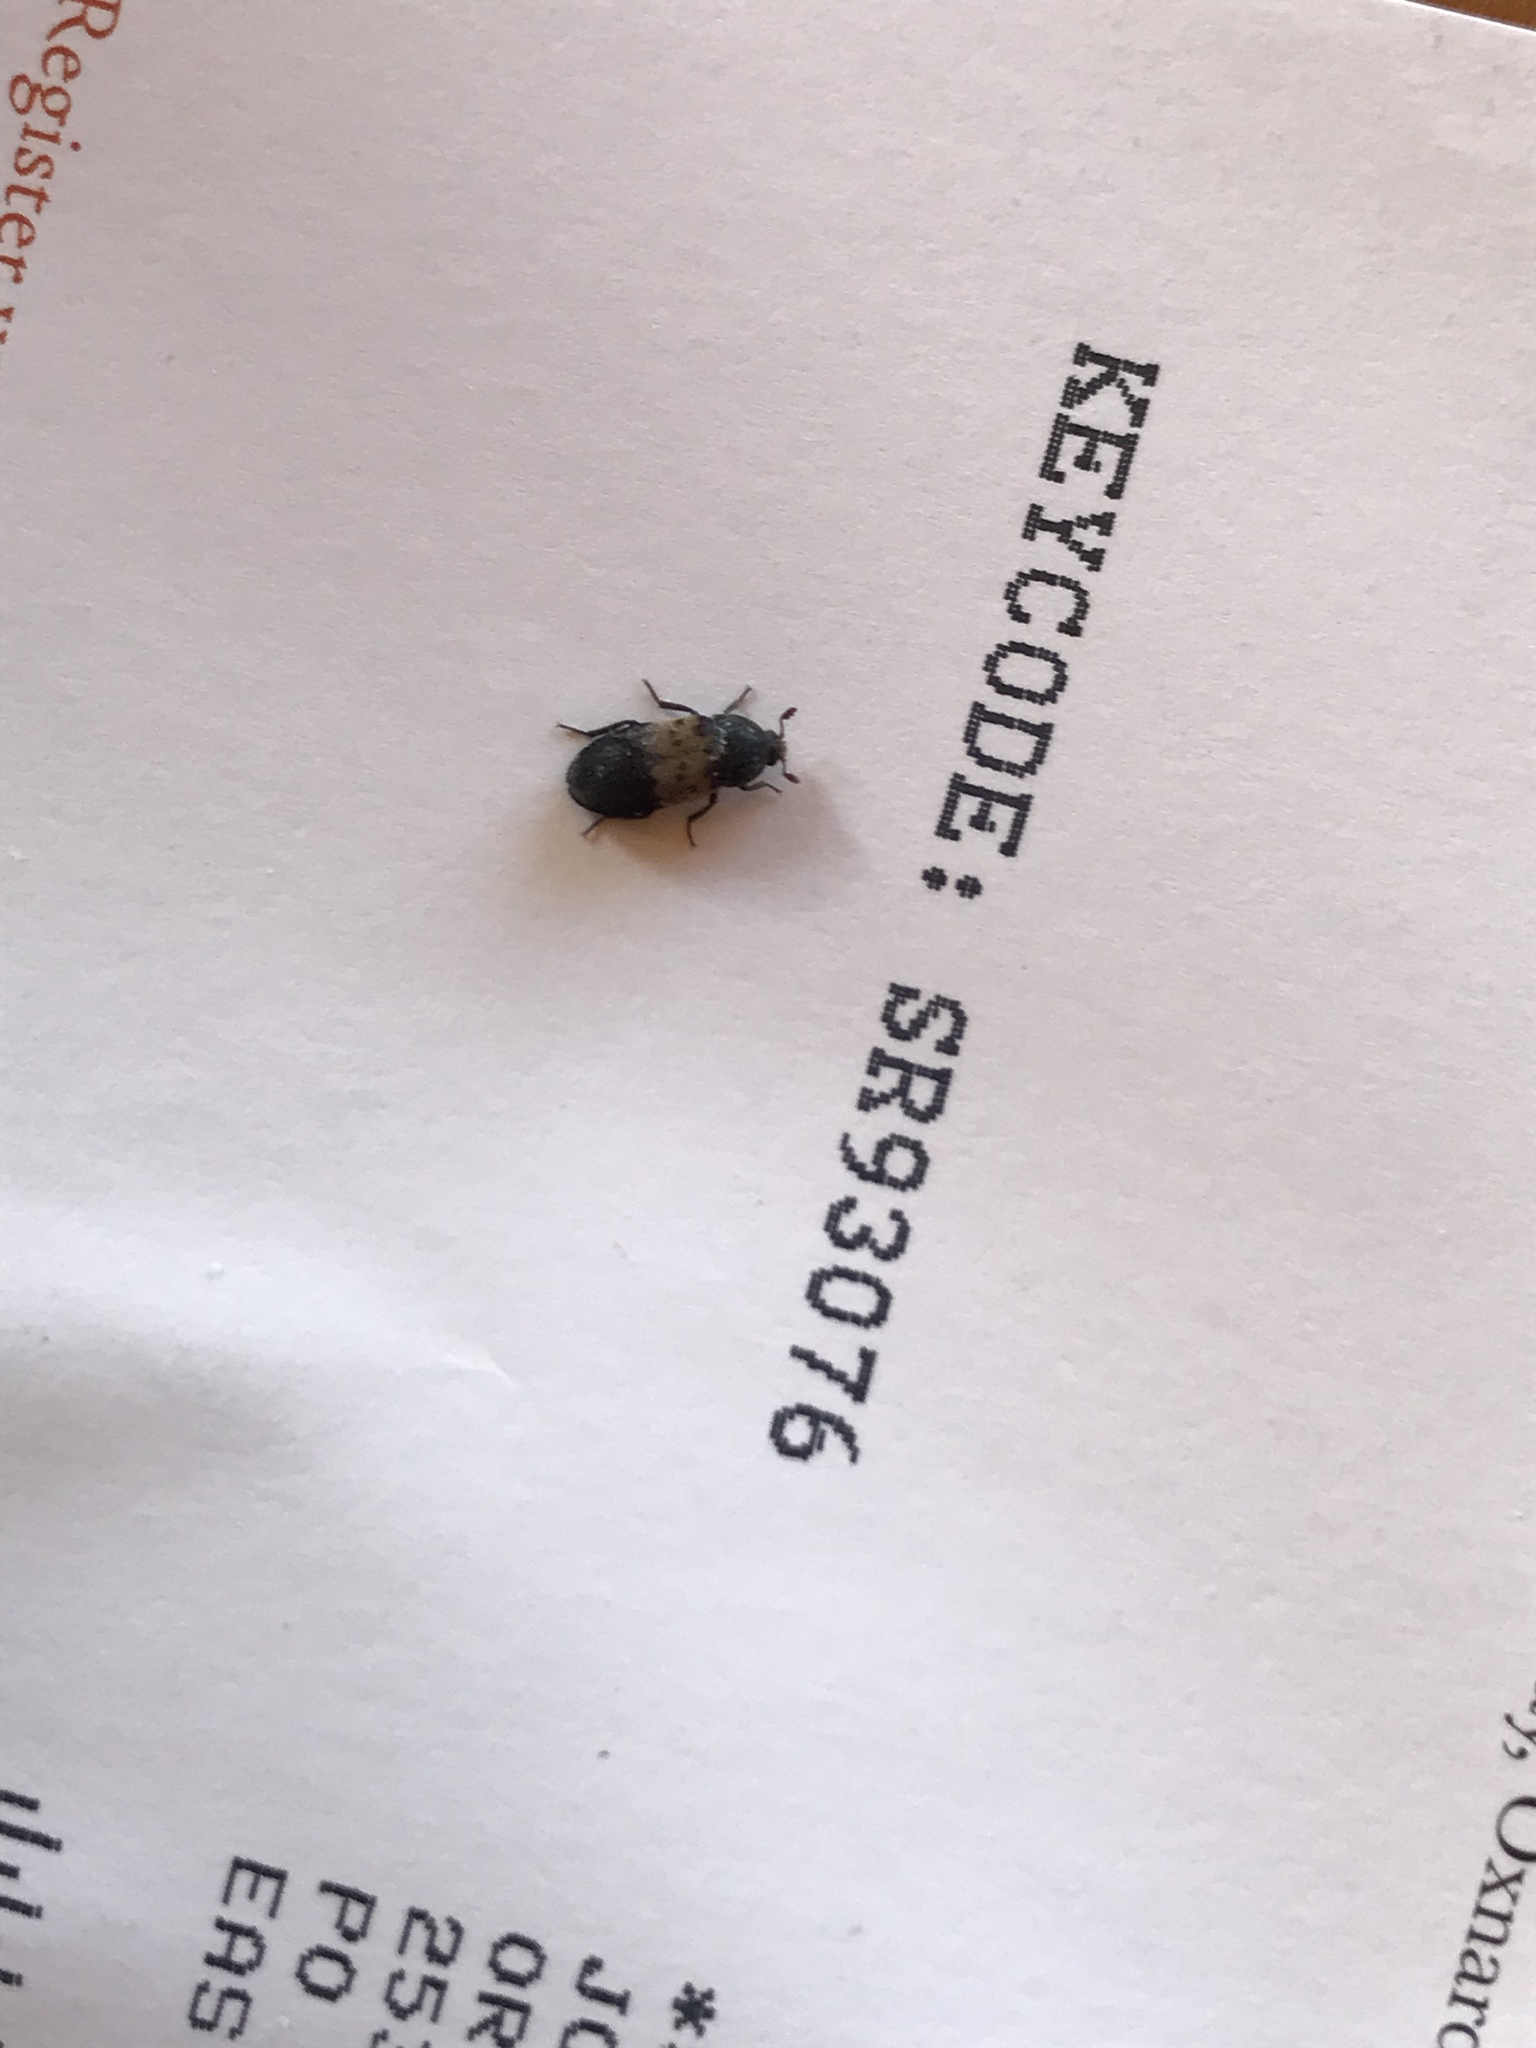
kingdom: Animalia
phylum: Arthropoda
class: Insecta
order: Coleoptera
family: Dermestidae
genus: Dermestes
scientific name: Dermestes lardarius
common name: Larder beetle
